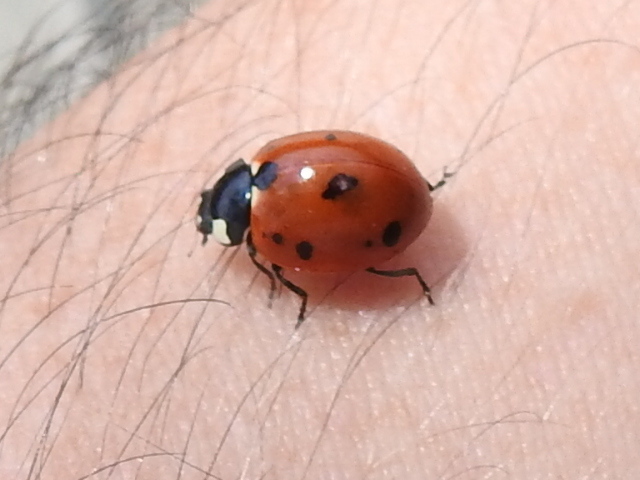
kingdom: Animalia
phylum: Arthropoda
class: Insecta
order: Coleoptera
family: Coccinellidae
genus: Coccinella
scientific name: Coccinella septempunctata
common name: Sevenspotted lady beetle
